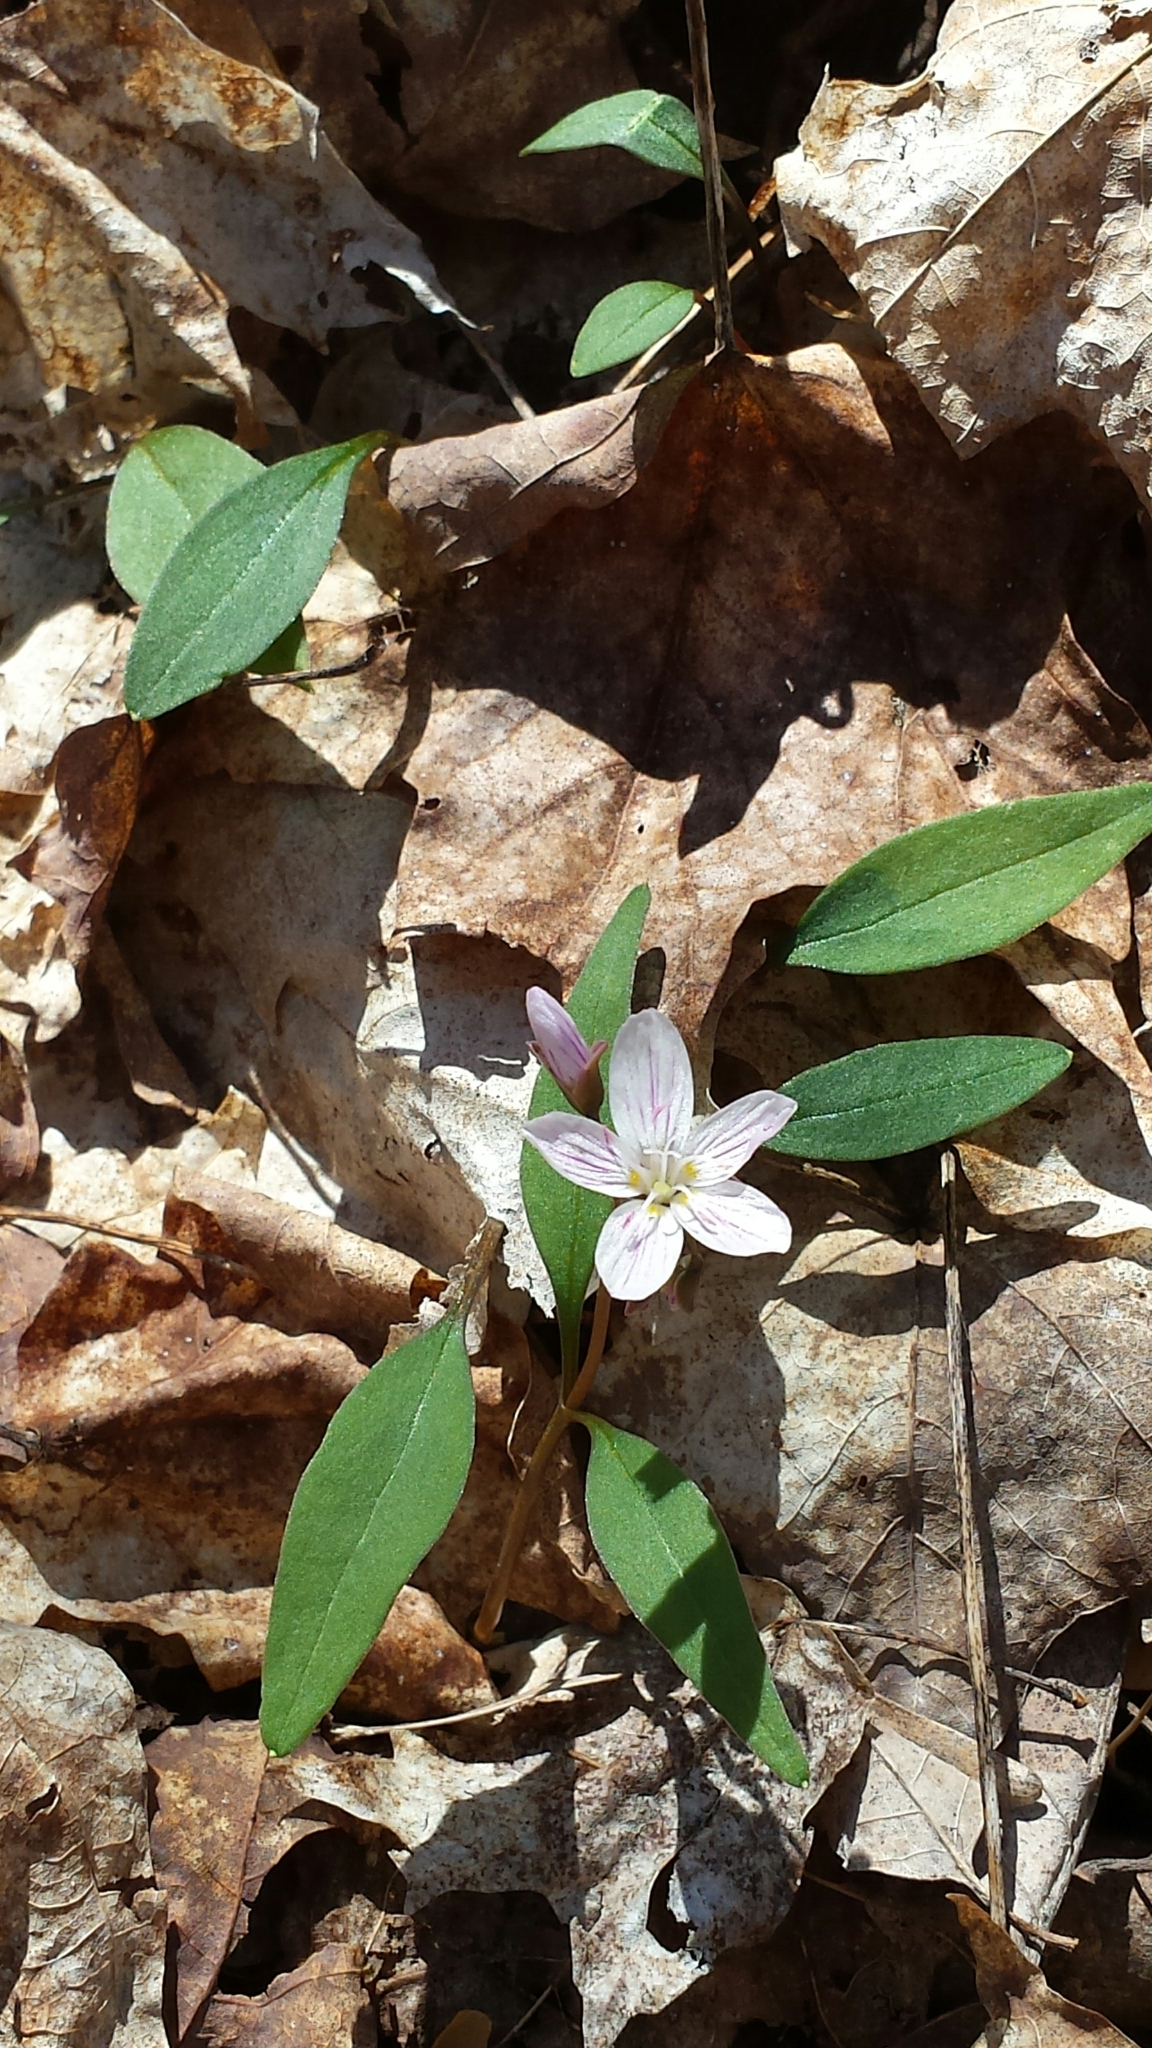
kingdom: Plantae
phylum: Tracheophyta
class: Magnoliopsida
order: Caryophyllales
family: Montiaceae
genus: Claytonia
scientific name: Claytonia caroliniana
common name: Carolina spring beauty
